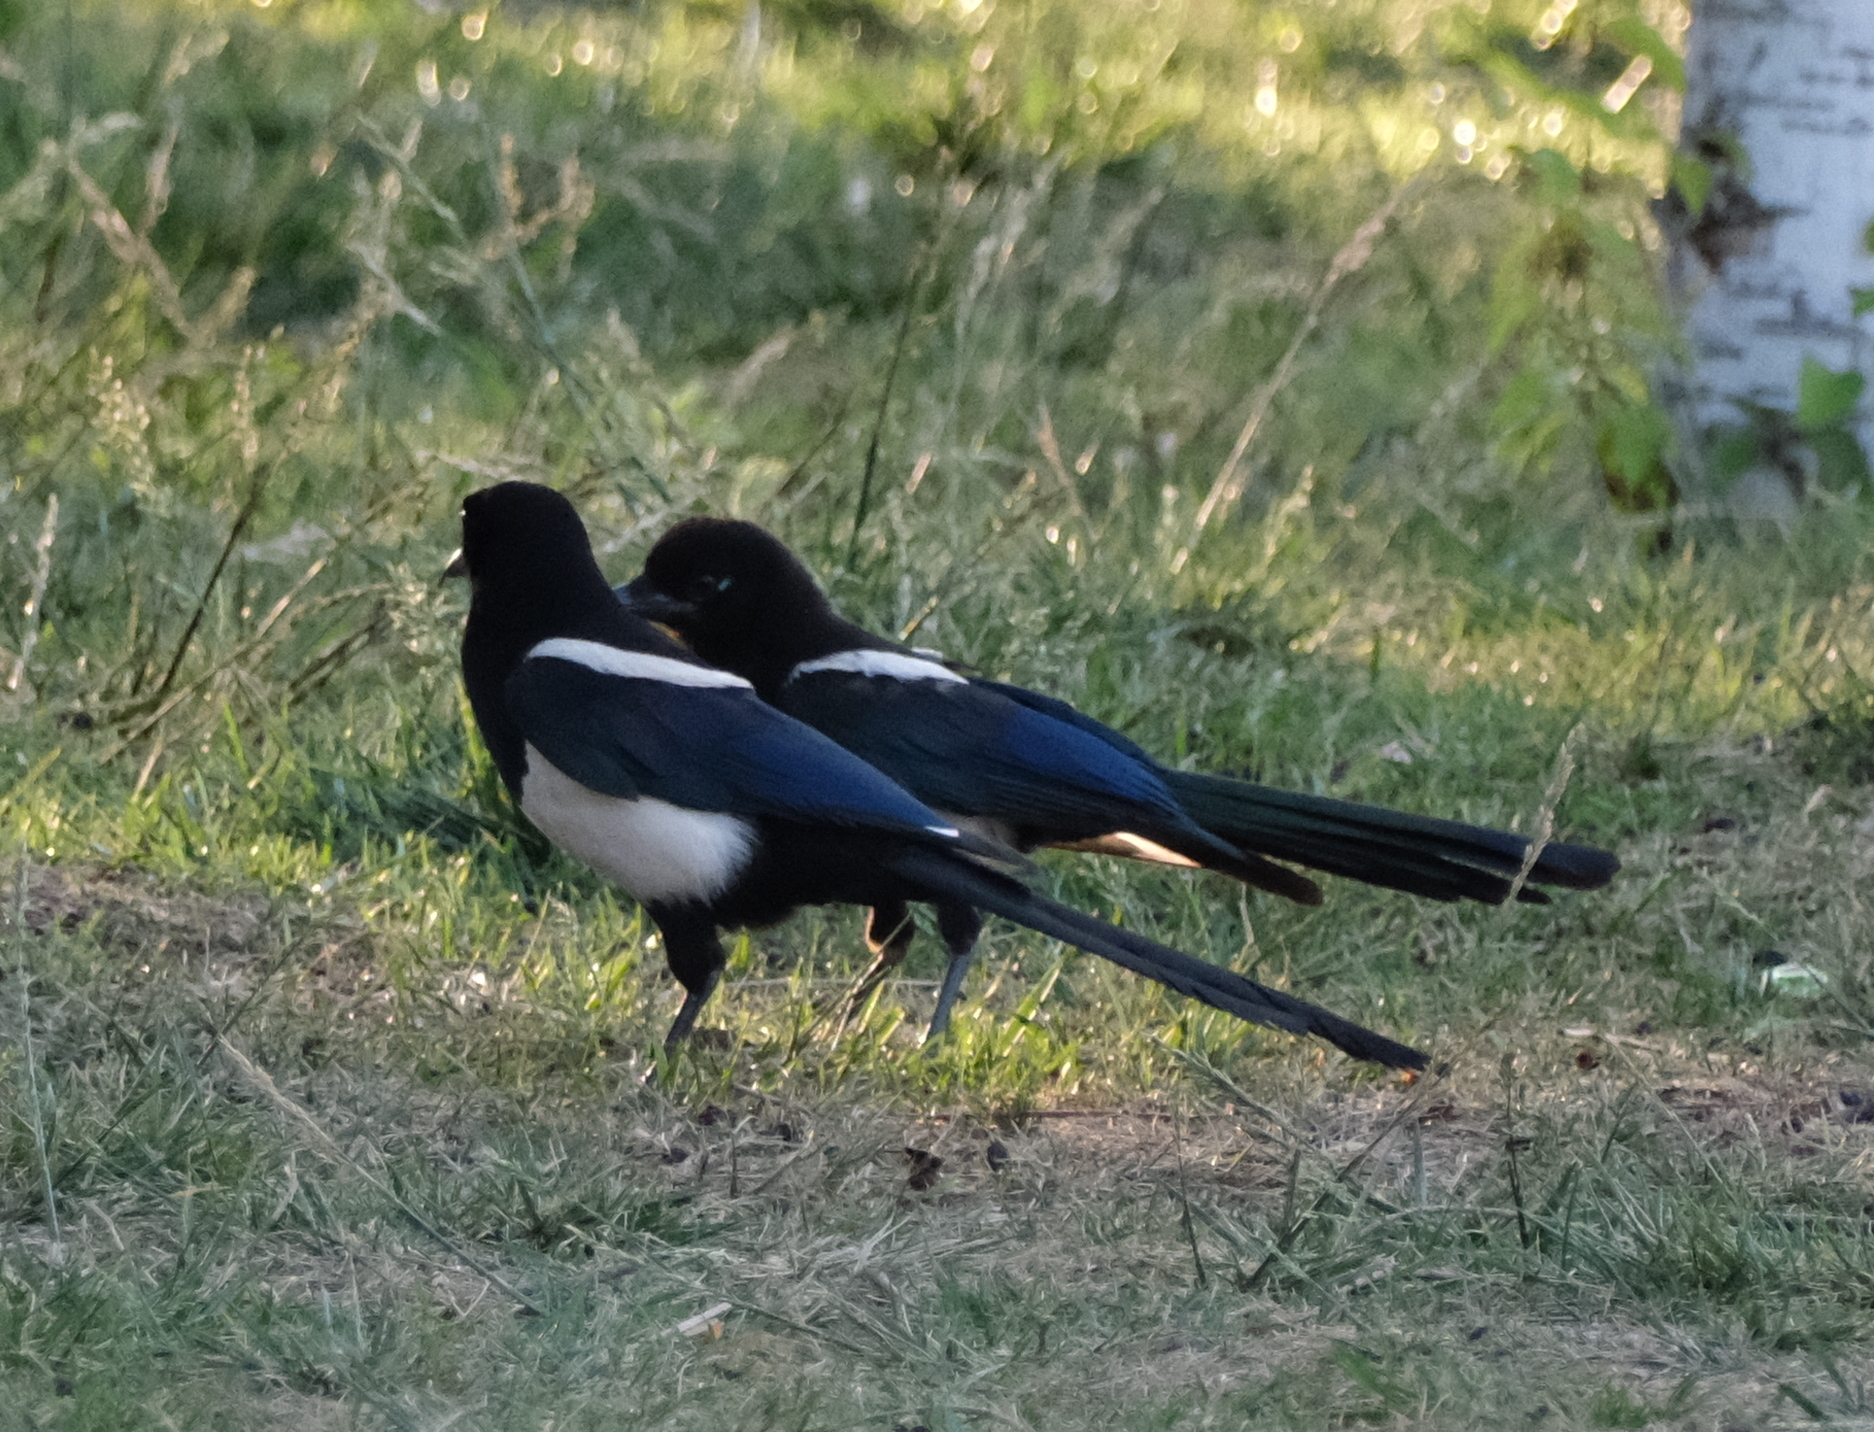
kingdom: Animalia
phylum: Chordata
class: Aves
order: Passeriformes
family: Corvidae
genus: Pica
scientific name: Pica serica
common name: Oriental magpie
